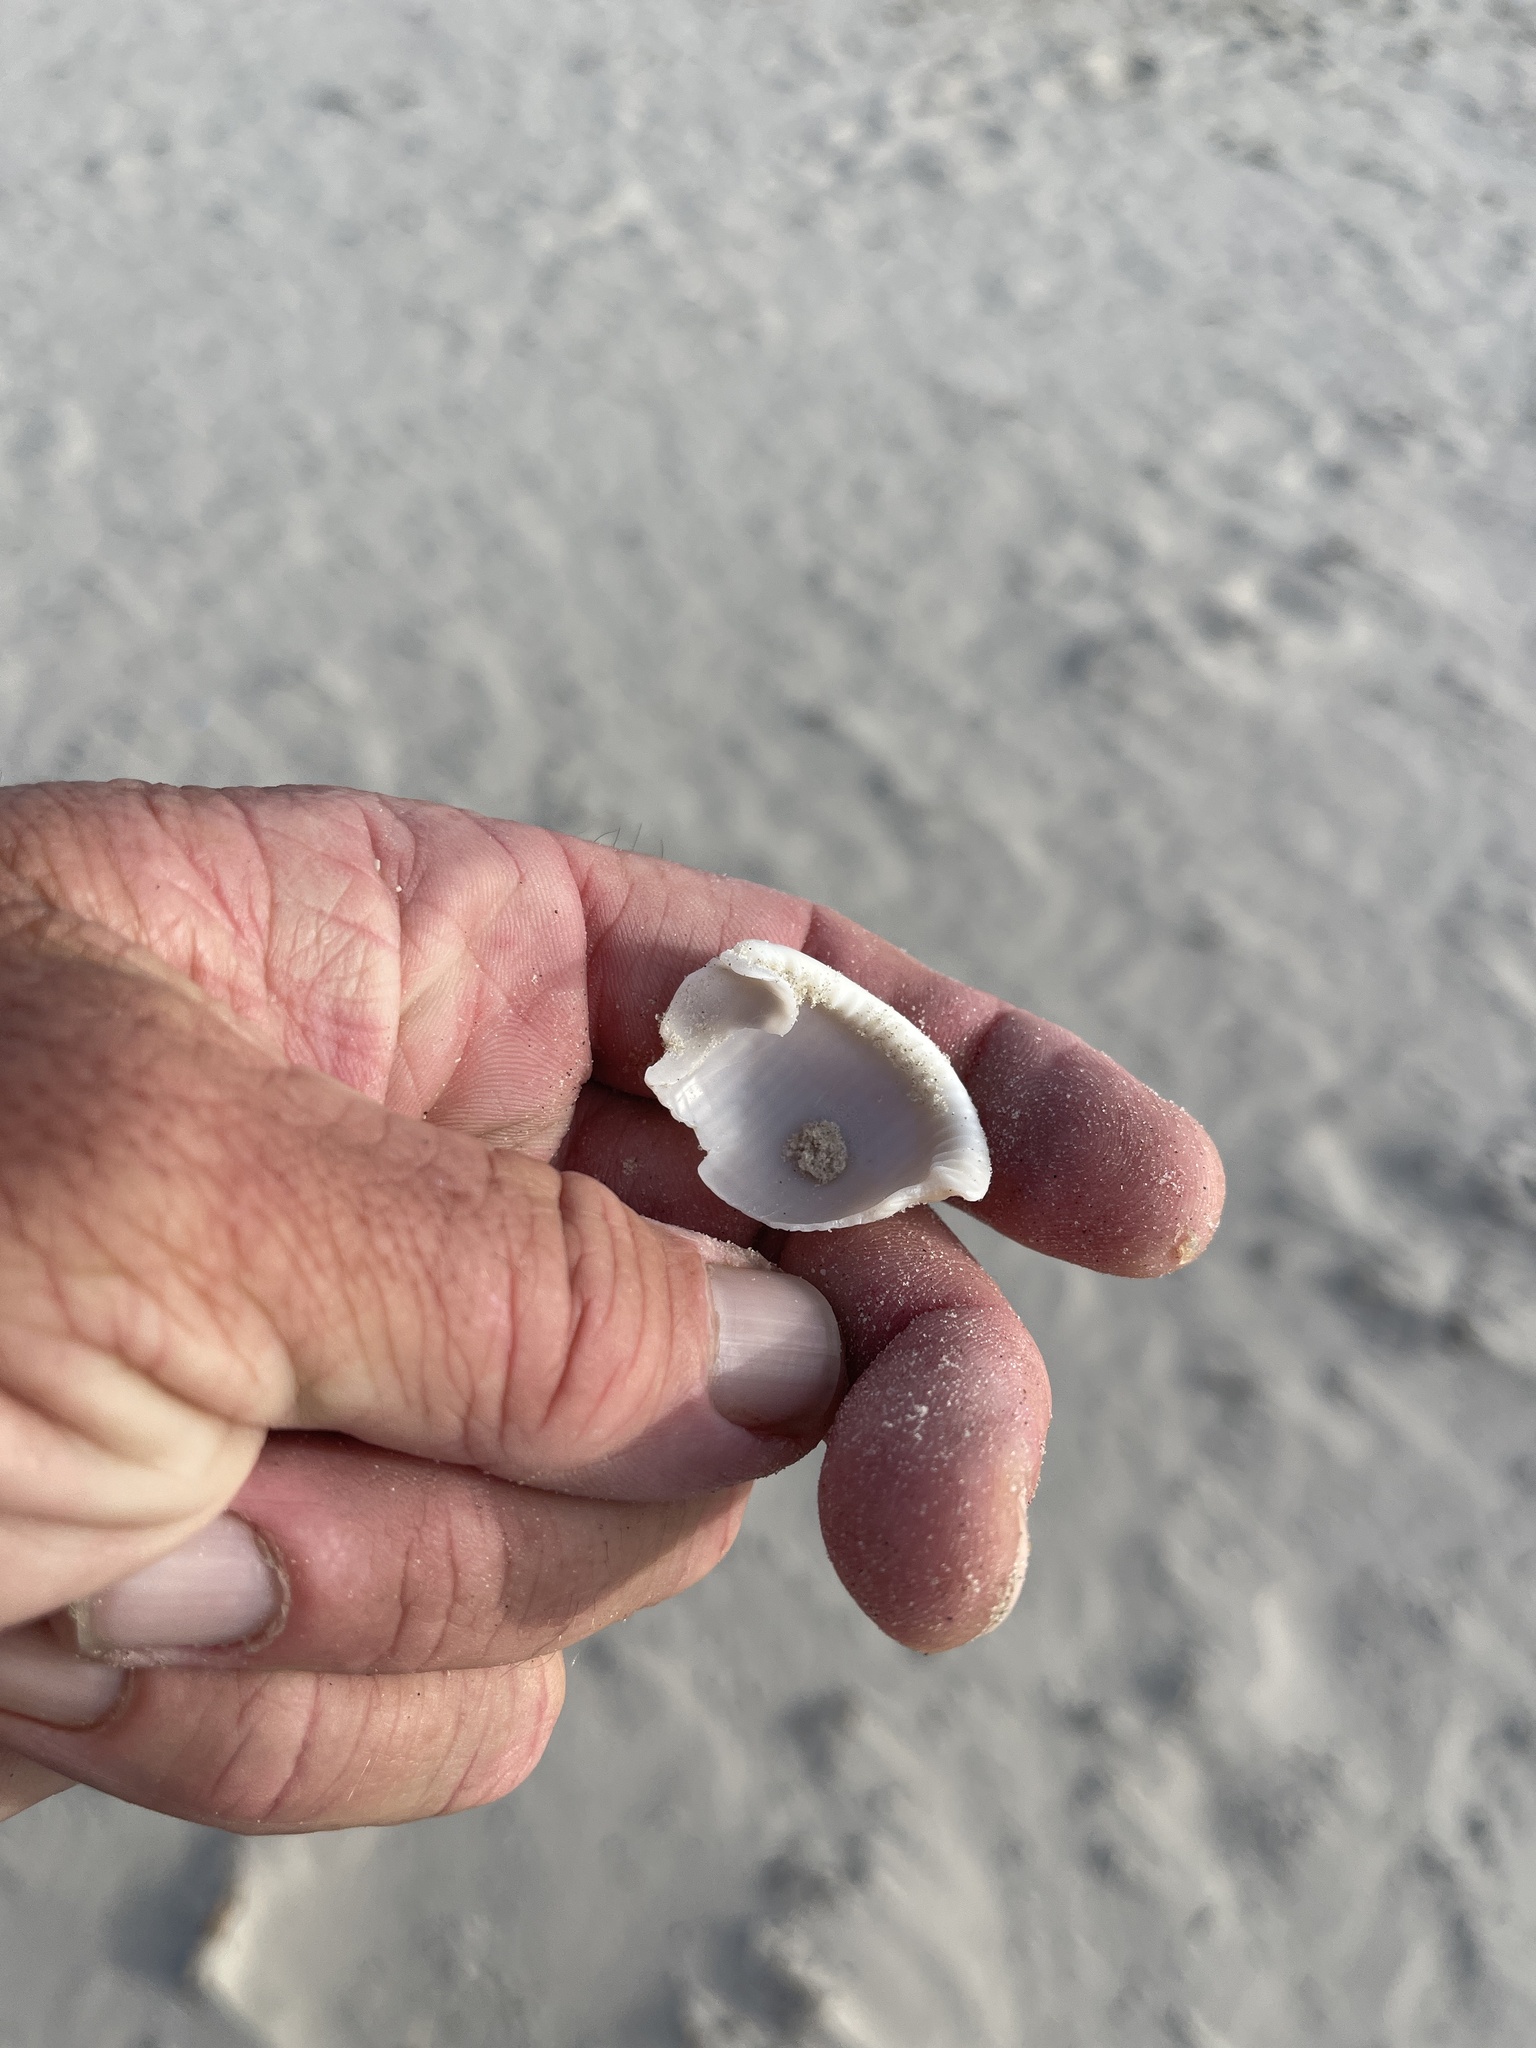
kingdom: Animalia
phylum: Mollusca
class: Gastropoda
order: Littorinimorpha
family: Cassidae
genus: Semicassis
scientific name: Semicassis granulata
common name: Scotch bonnet
